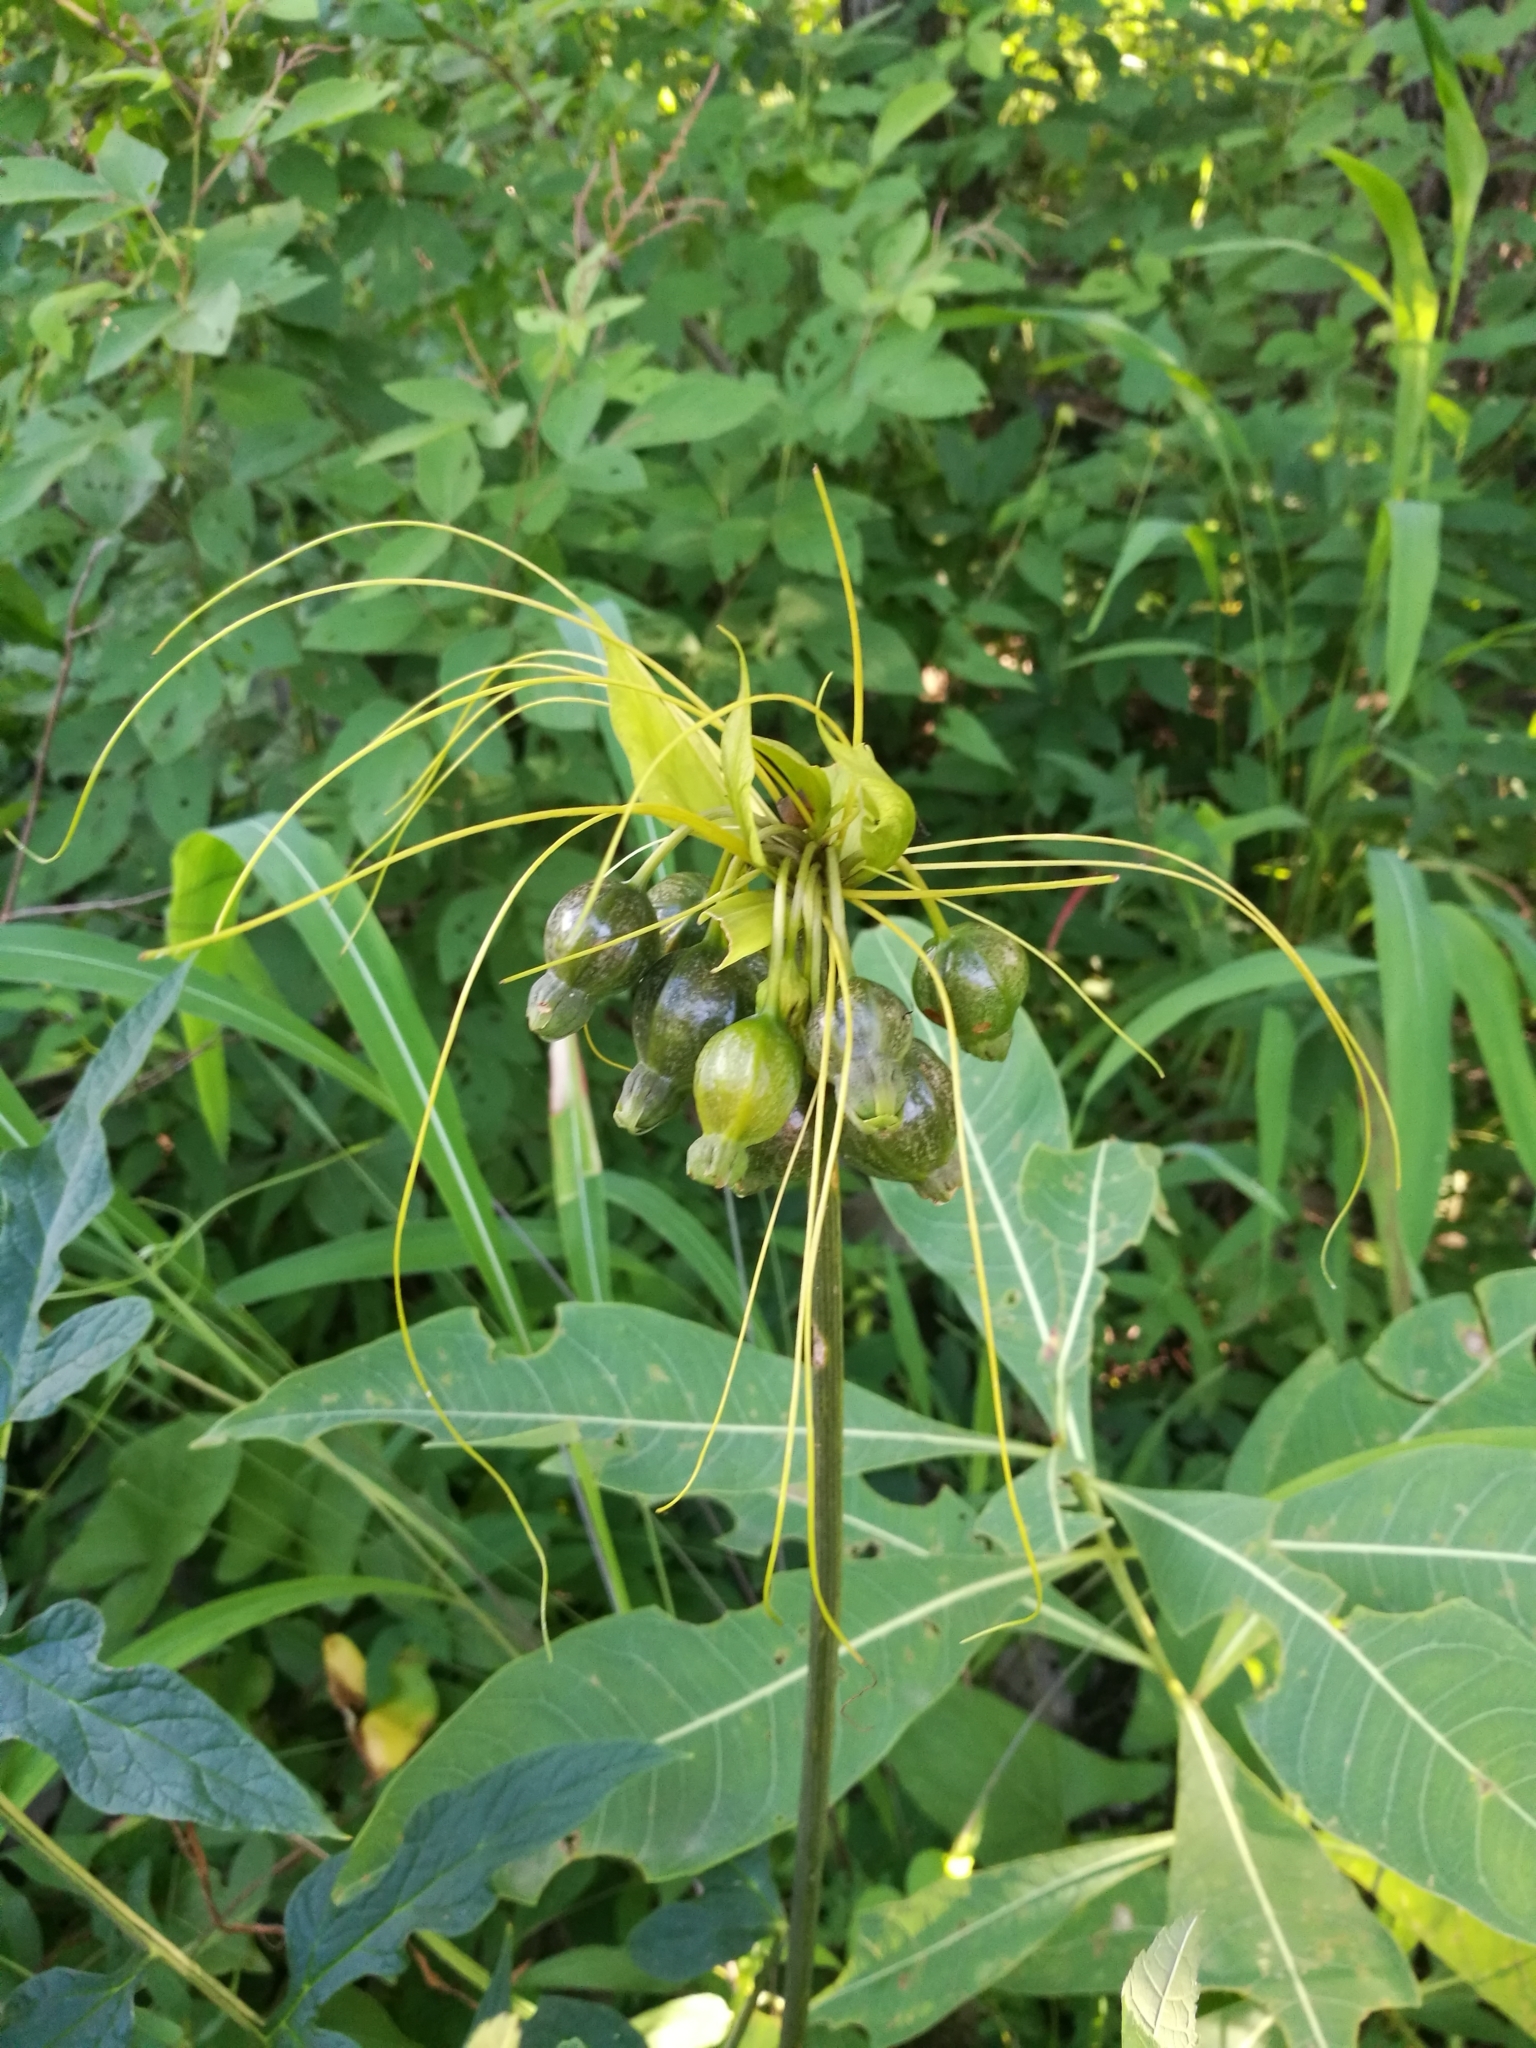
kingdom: Plantae
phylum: Tracheophyta
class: Liliopsida
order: Dioscoreales
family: Dioscoreaceae
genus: Tacca
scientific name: Tacca leontopetaloides
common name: Arrowroot
